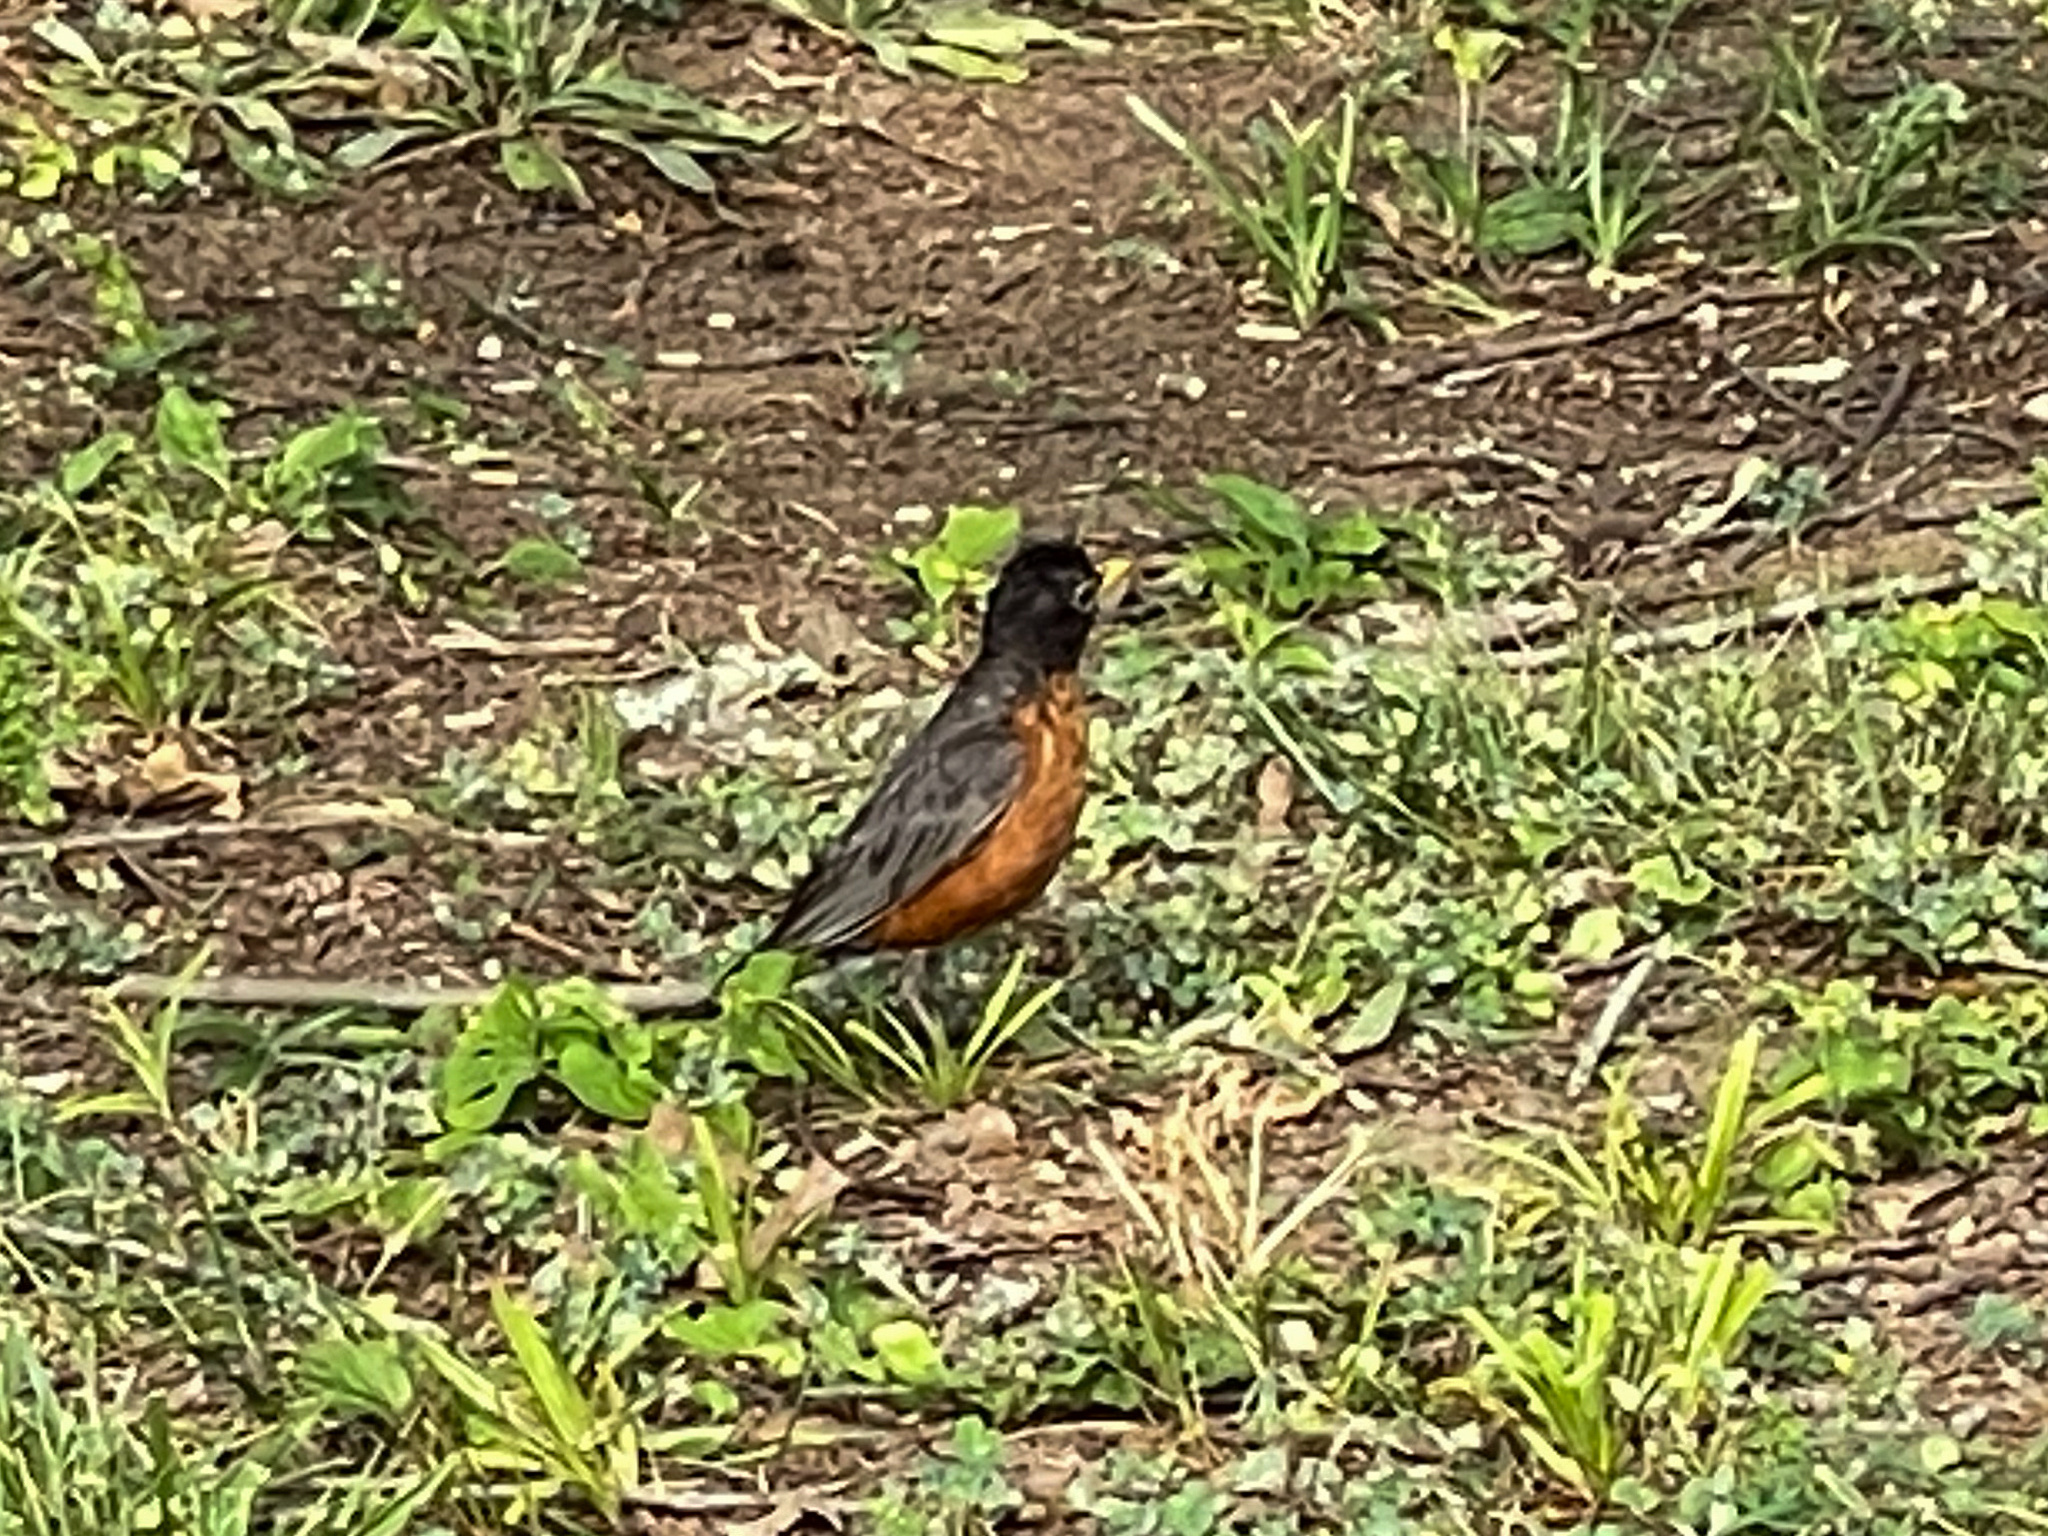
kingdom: Animalia
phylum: Chordata
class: Aves
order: Passeriformes
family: Turdidae
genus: Turdus
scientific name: Turdus migratorius
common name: American robin
